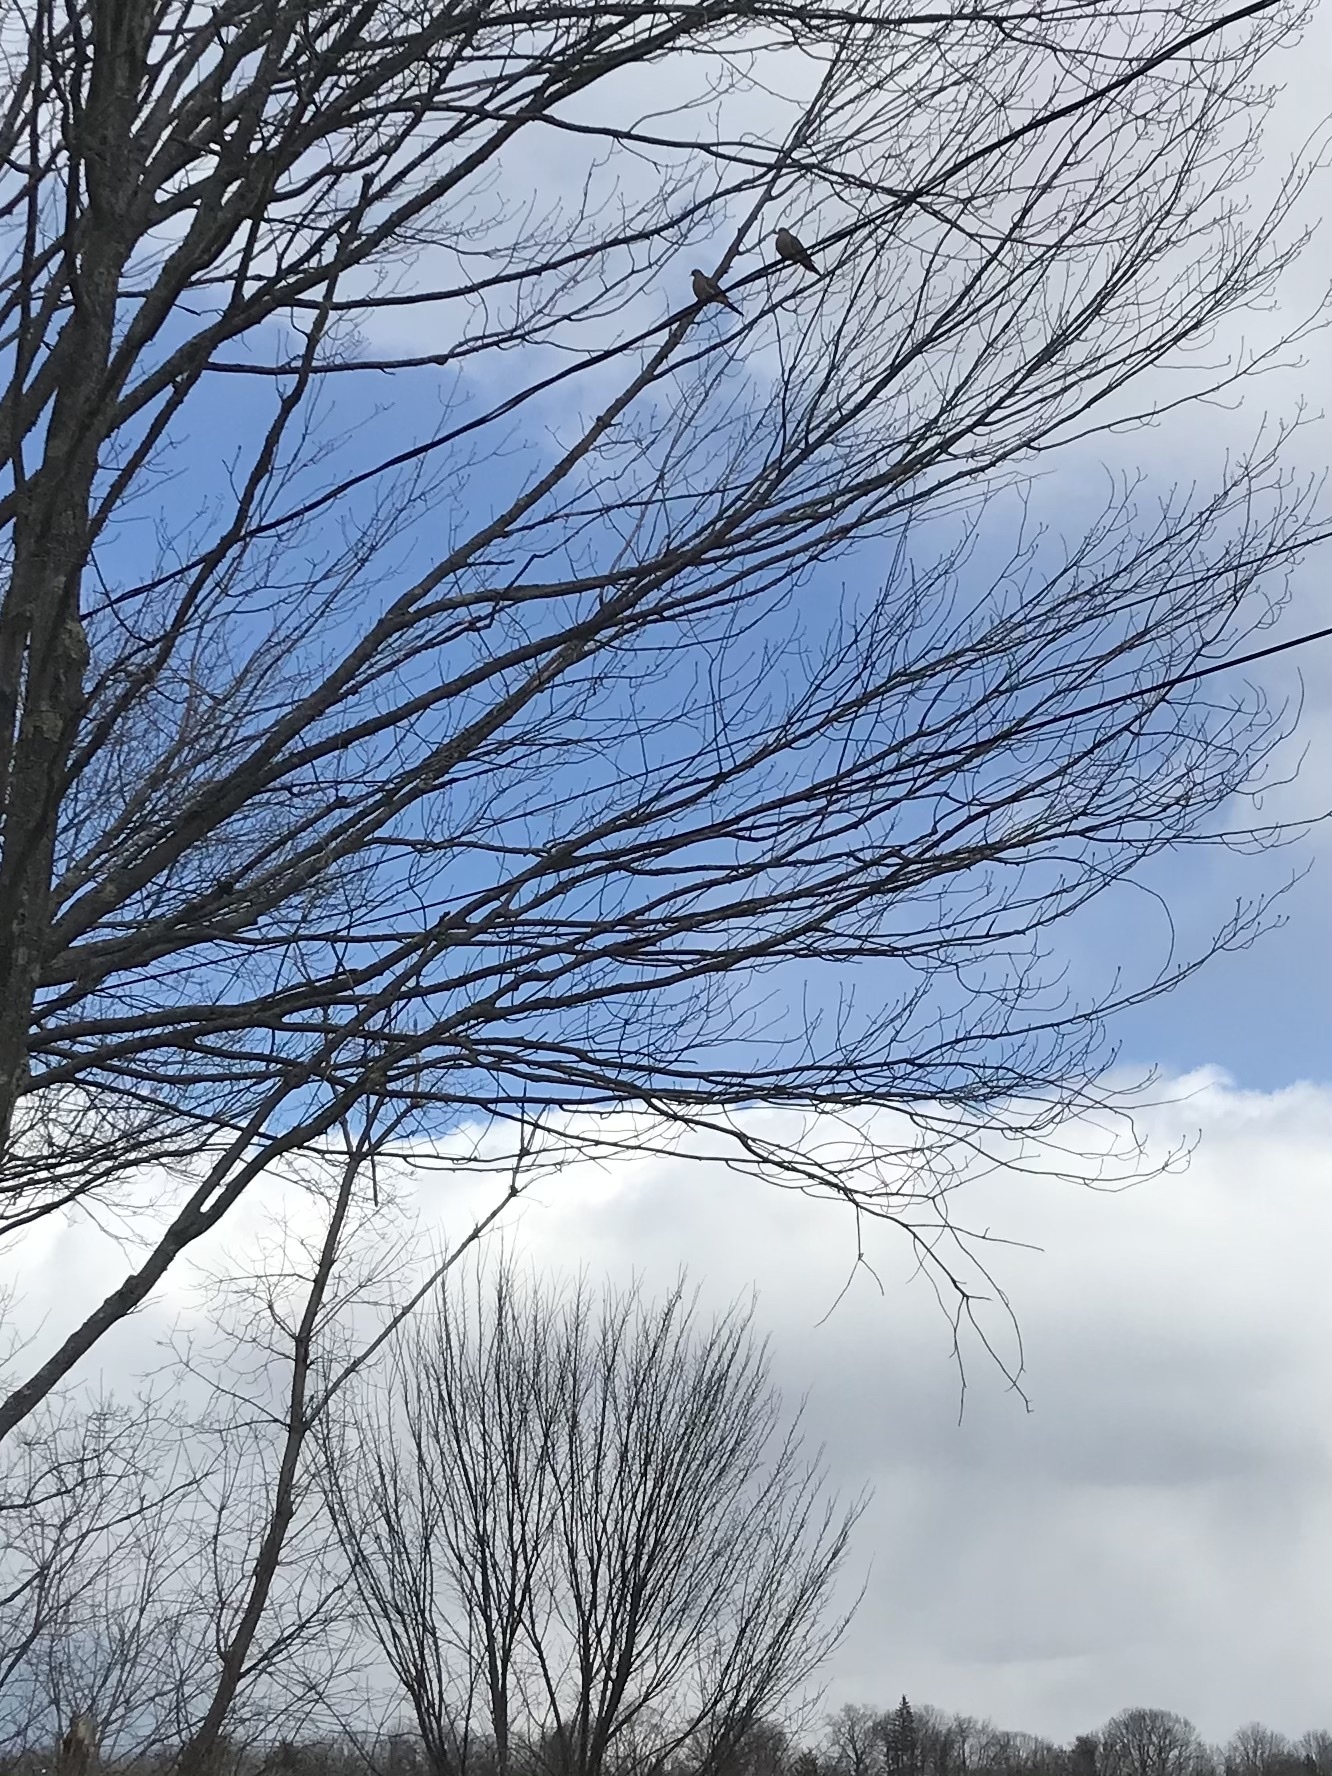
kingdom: Animalia
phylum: Chordata
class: Aves
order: Columbiformes
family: Columbidae
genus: Zenaida
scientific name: Zenaida macroura
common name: Mourning dove
